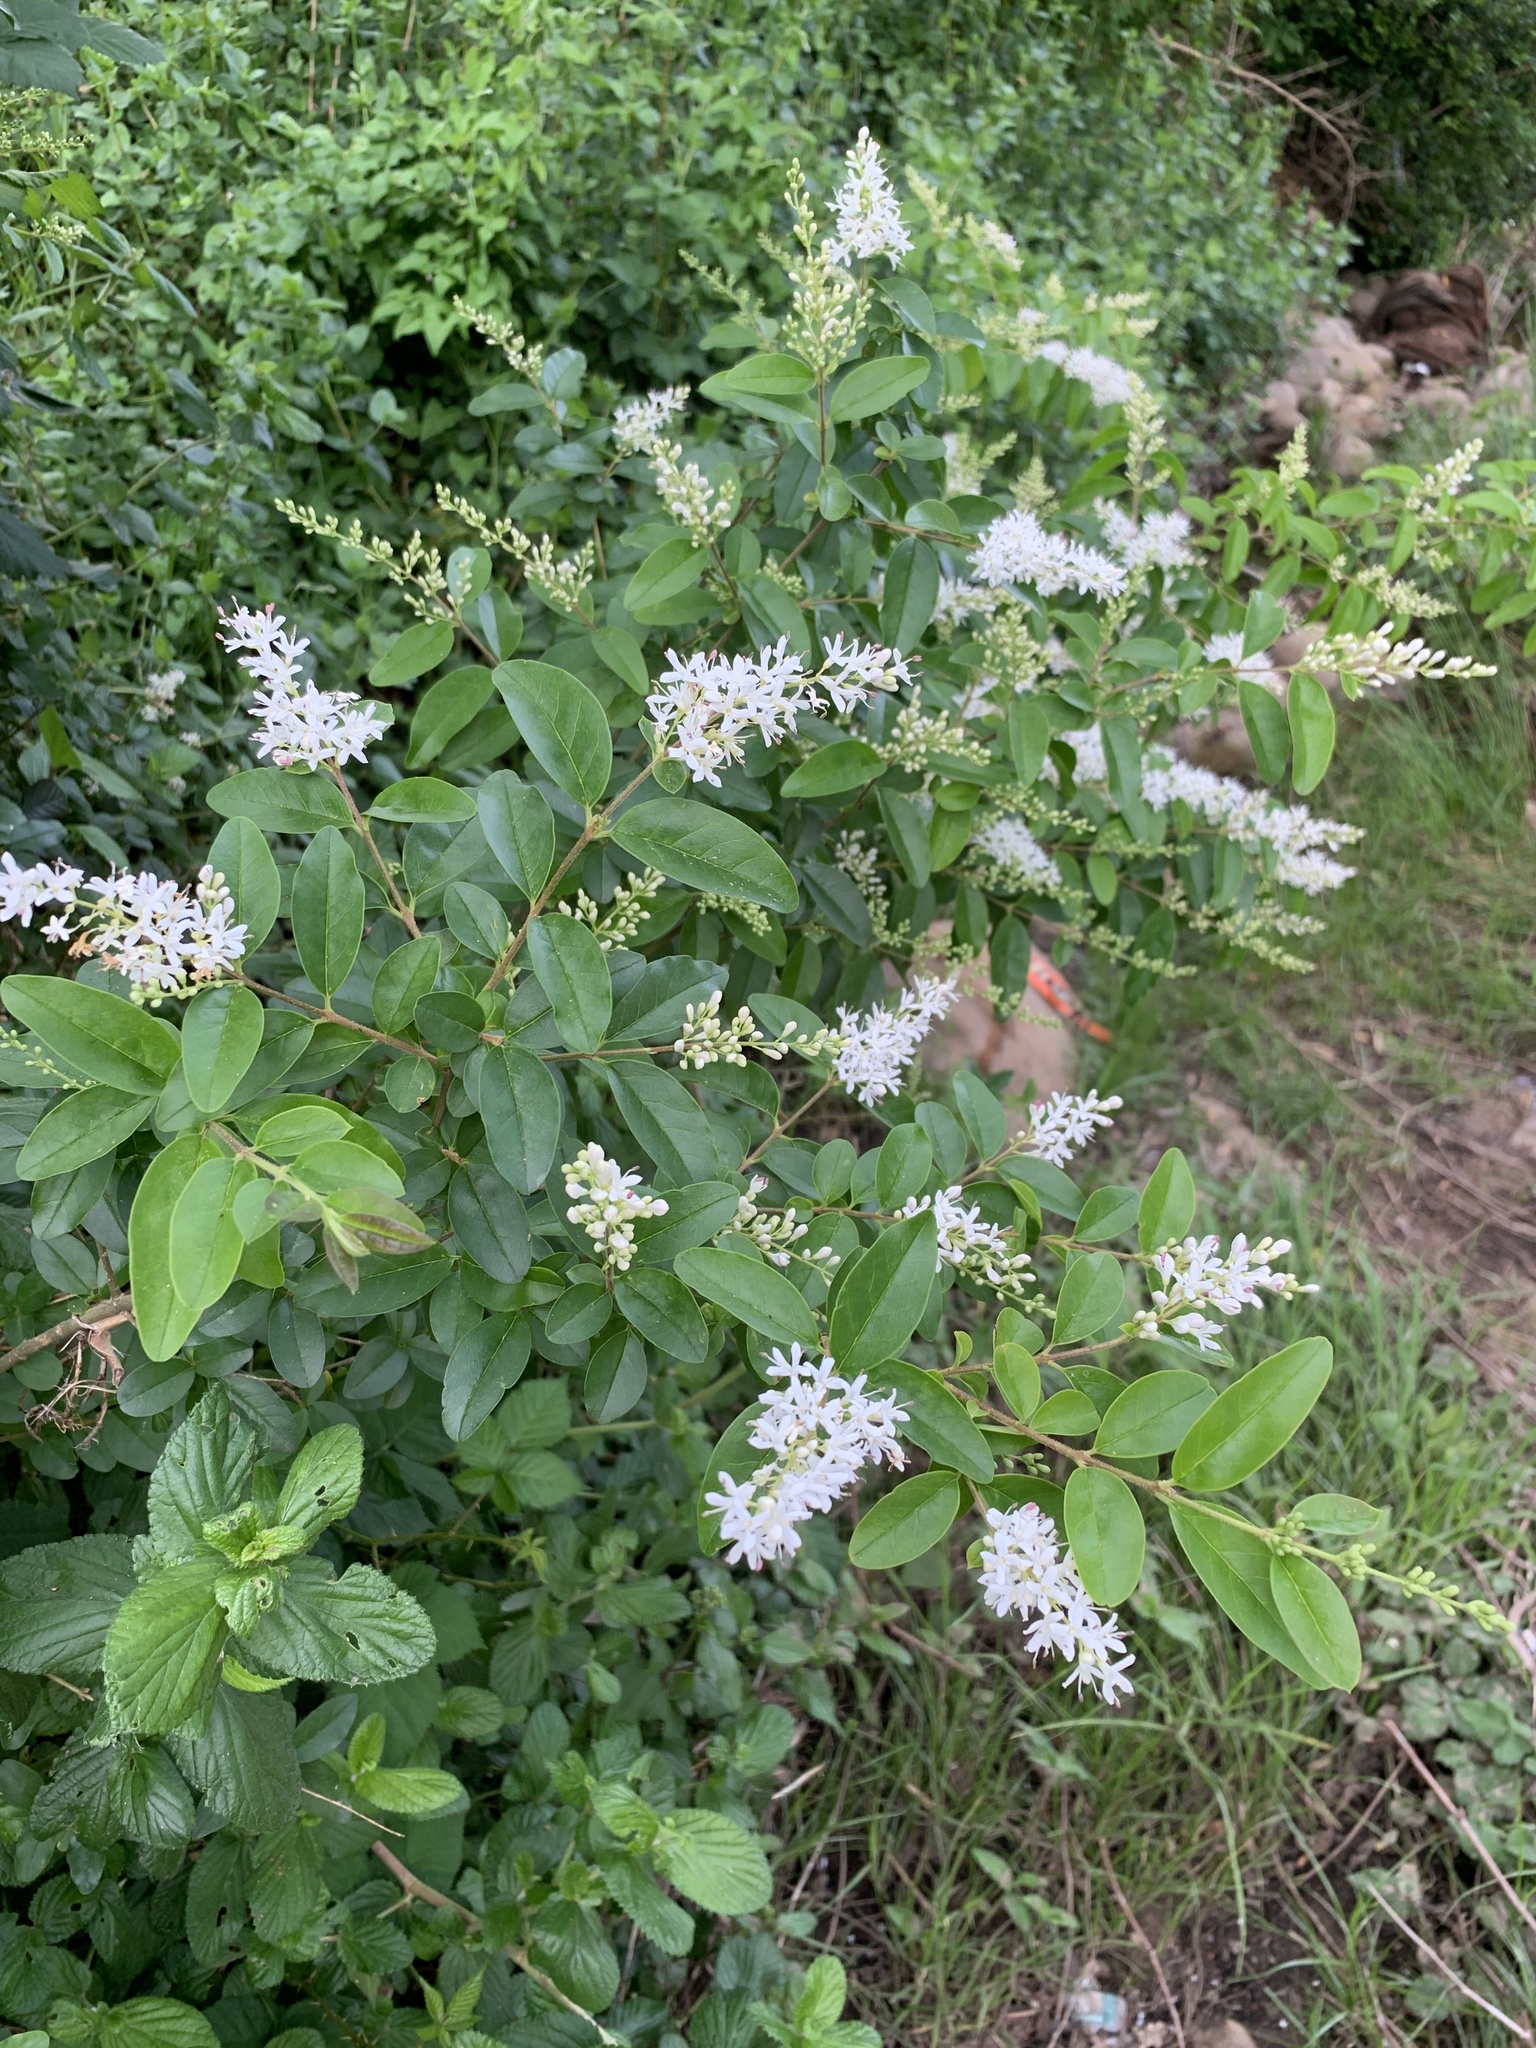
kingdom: Plantae
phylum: Tracheophyta
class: Magnoliopsida
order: Lamiales
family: Oleaceae
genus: Ligustrum
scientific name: Ligustrum sinense
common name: Chinese privet
